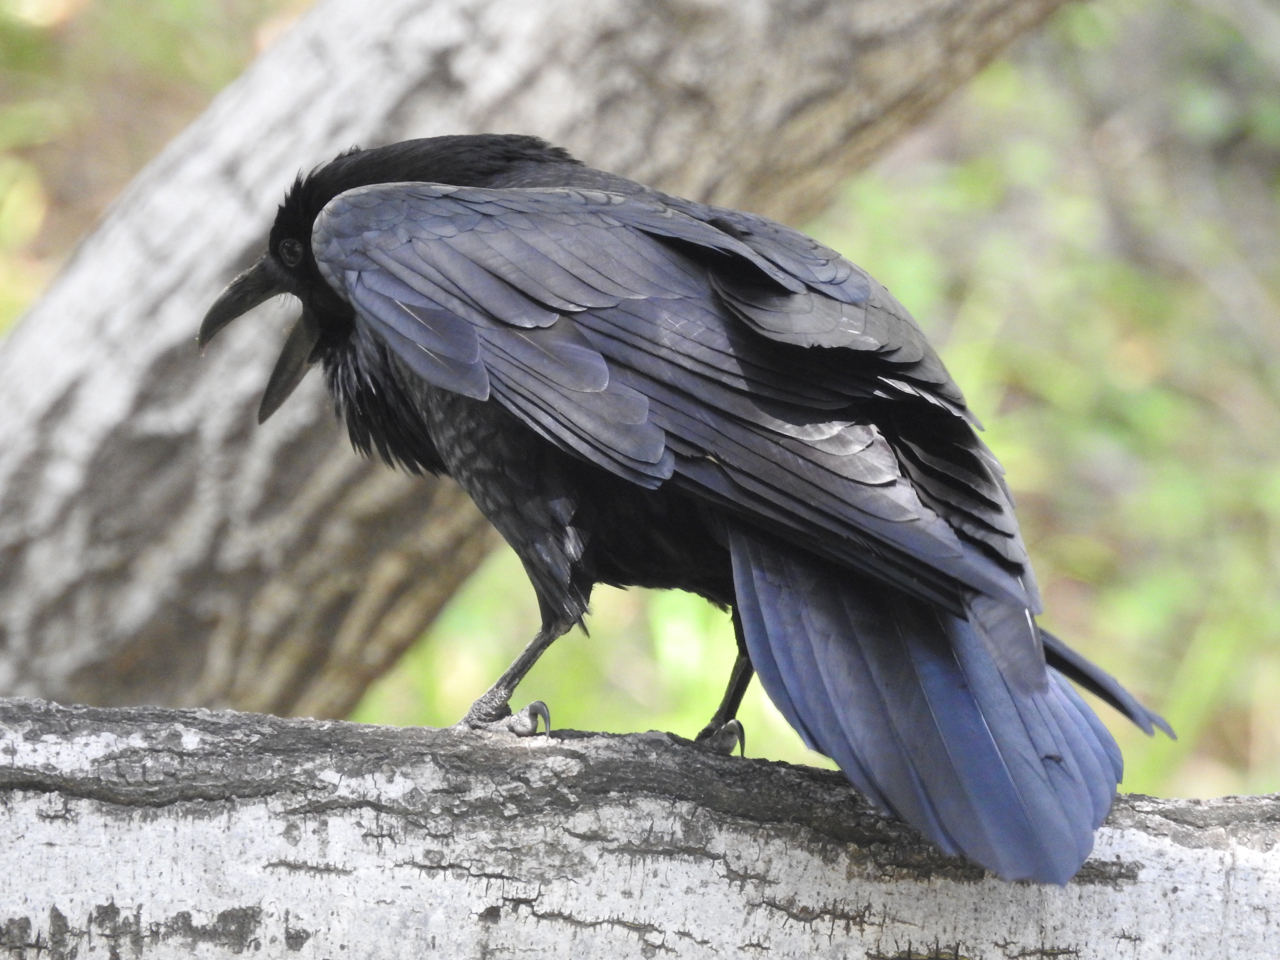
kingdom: Animalia
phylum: Chordata
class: Aves
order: Passeriformes
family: Corvidae
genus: Corvus
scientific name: Corvus corax
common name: Common raven
